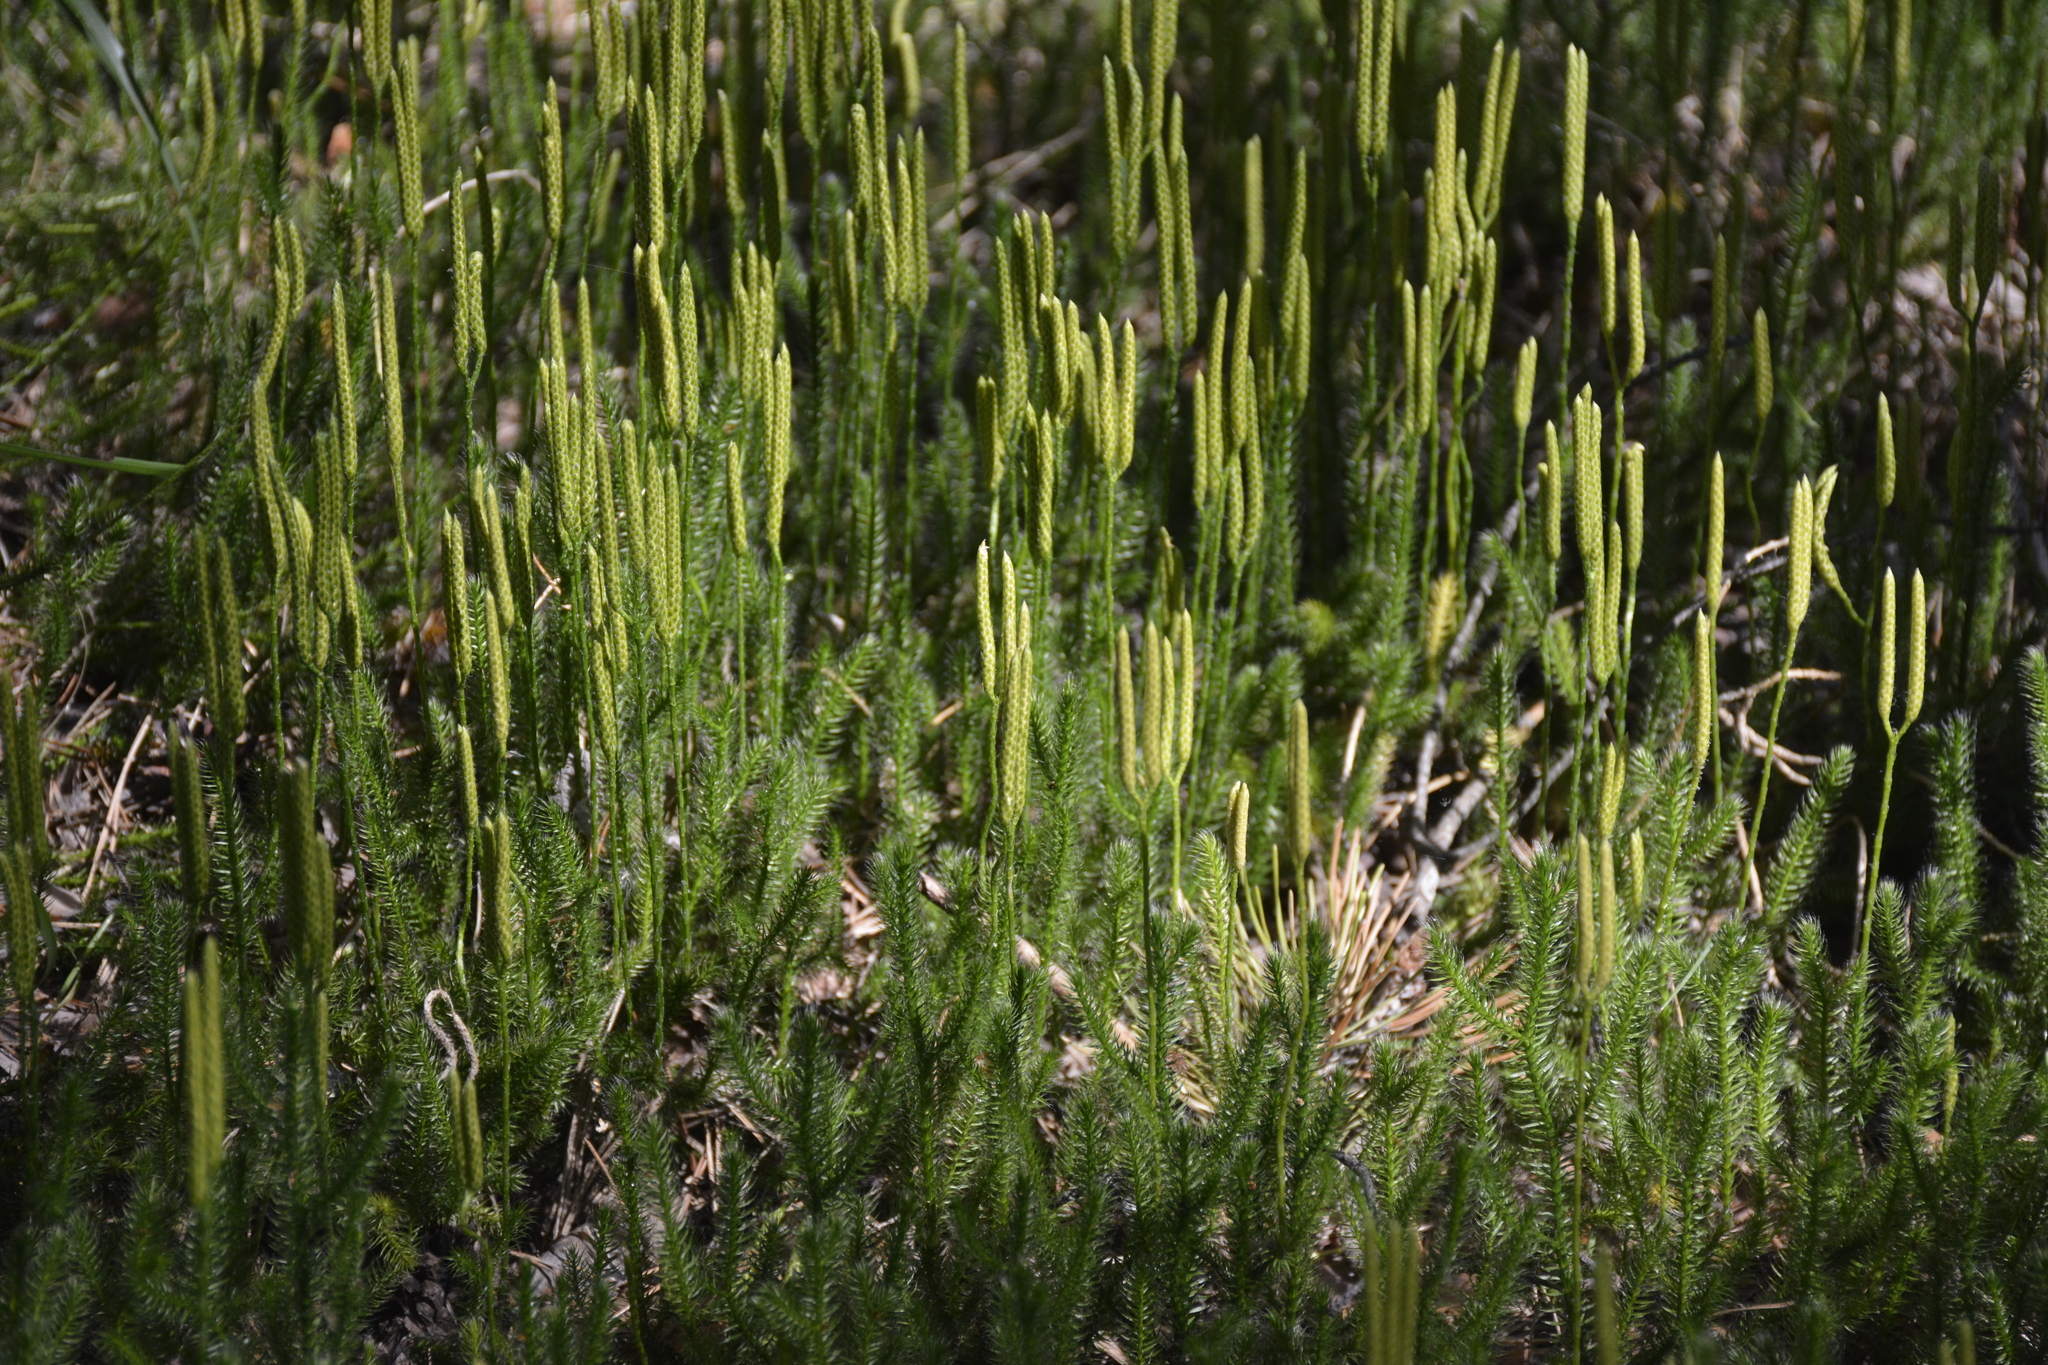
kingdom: Plantae
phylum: Tracheophyta
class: Lycopodiopsida
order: Lycopodiales
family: Lycopodiaceae
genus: Lycopodium
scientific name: Lycopodium clavatum
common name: Stag's-horn clubmoss
